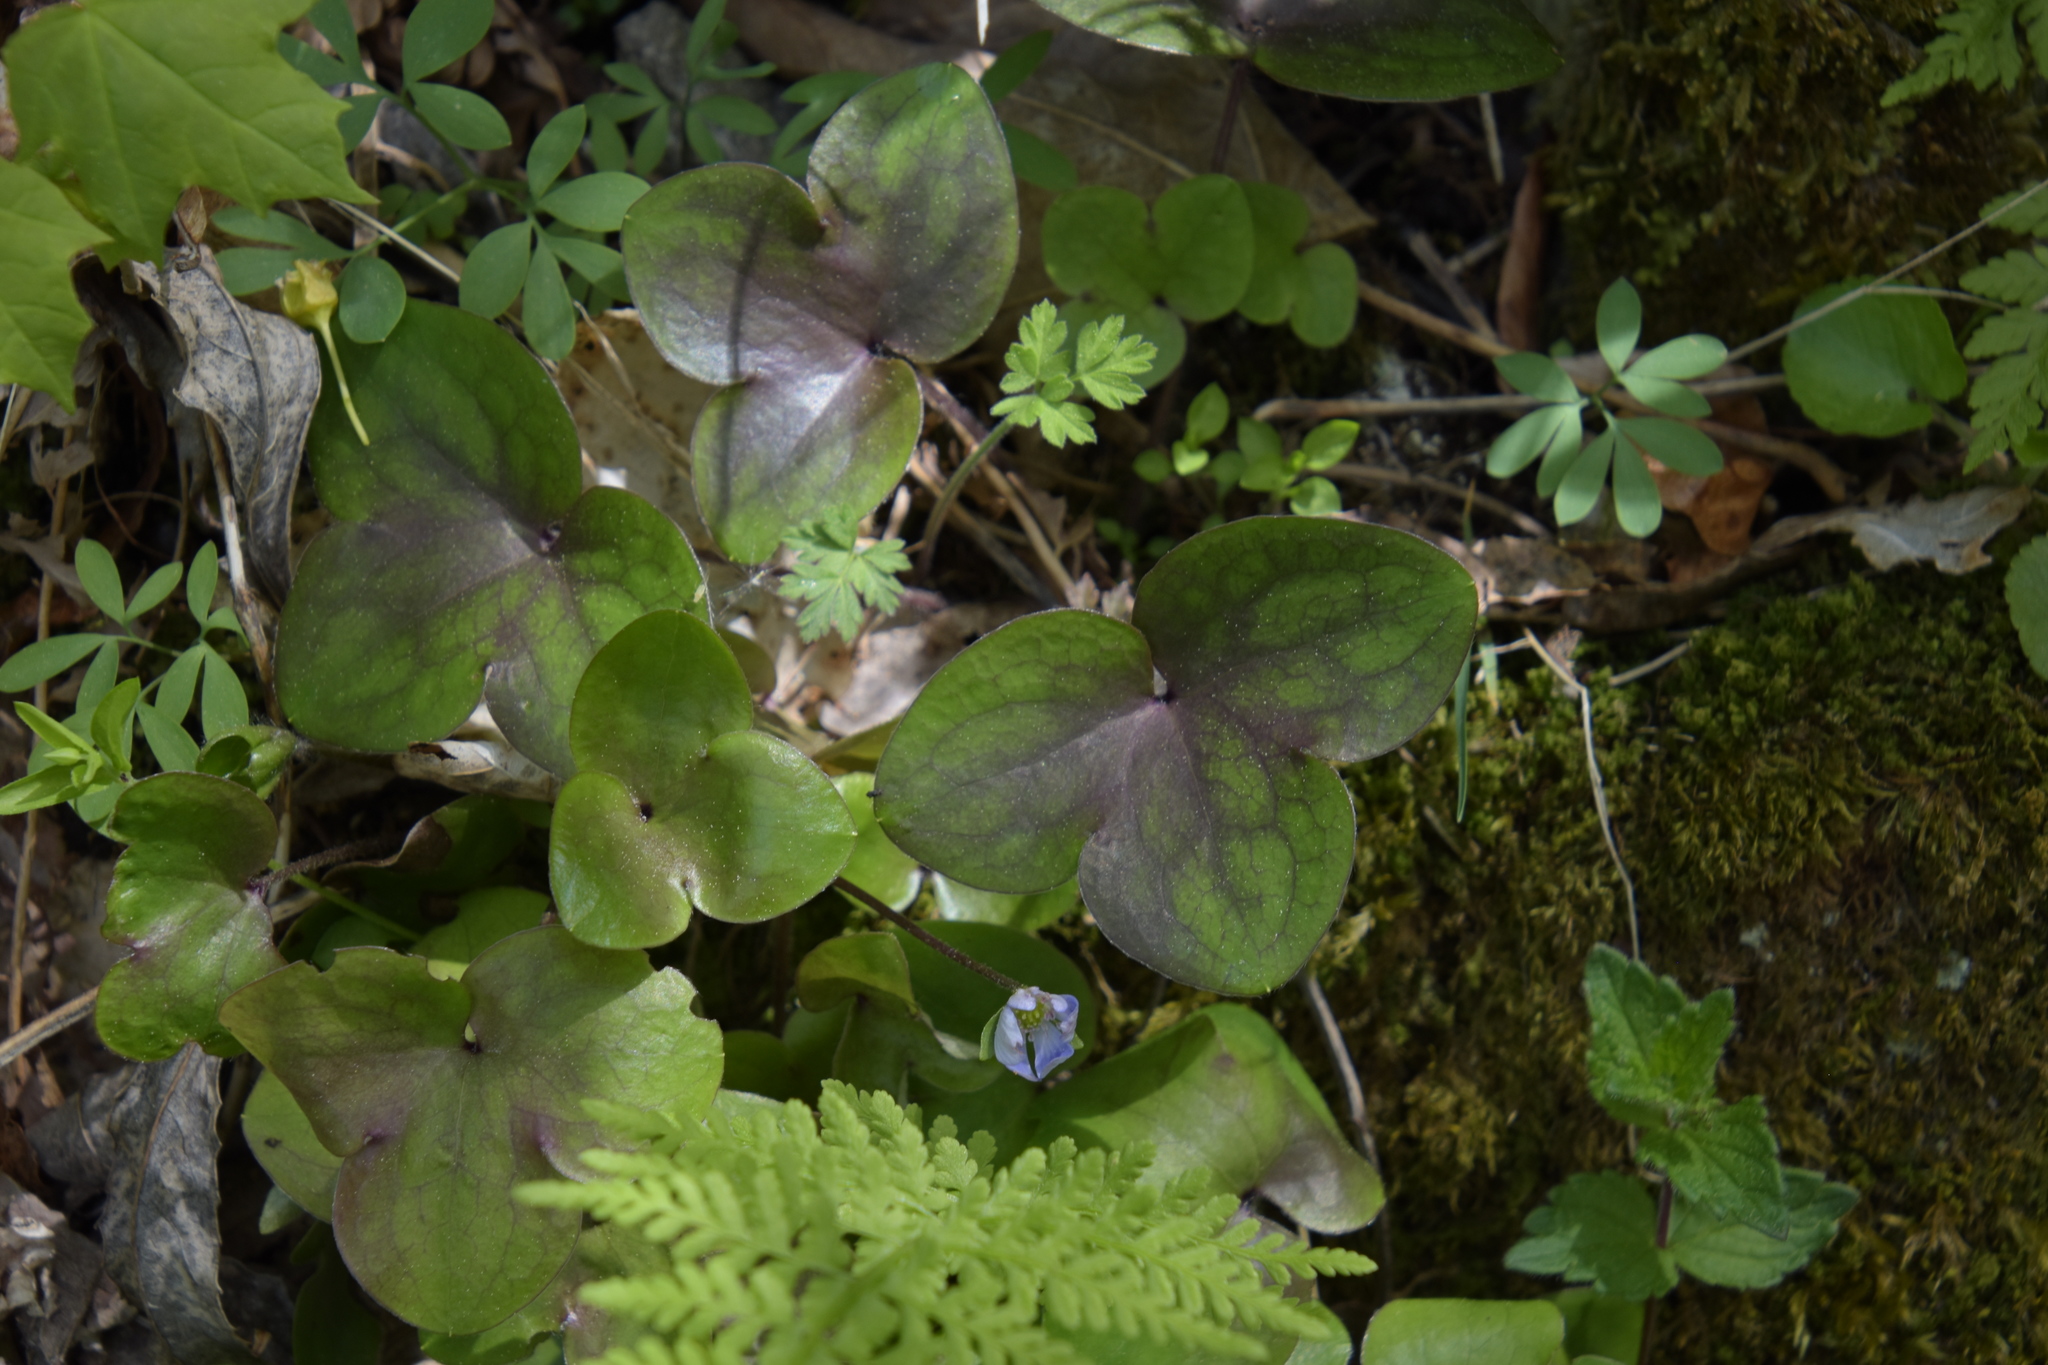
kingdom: Plantae
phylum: Tracheophyta
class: Magnoliopsida
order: Ranunculales
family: Ranunculaceae
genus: Hepatica
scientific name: Hepatica nobilis
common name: Liverleaf
